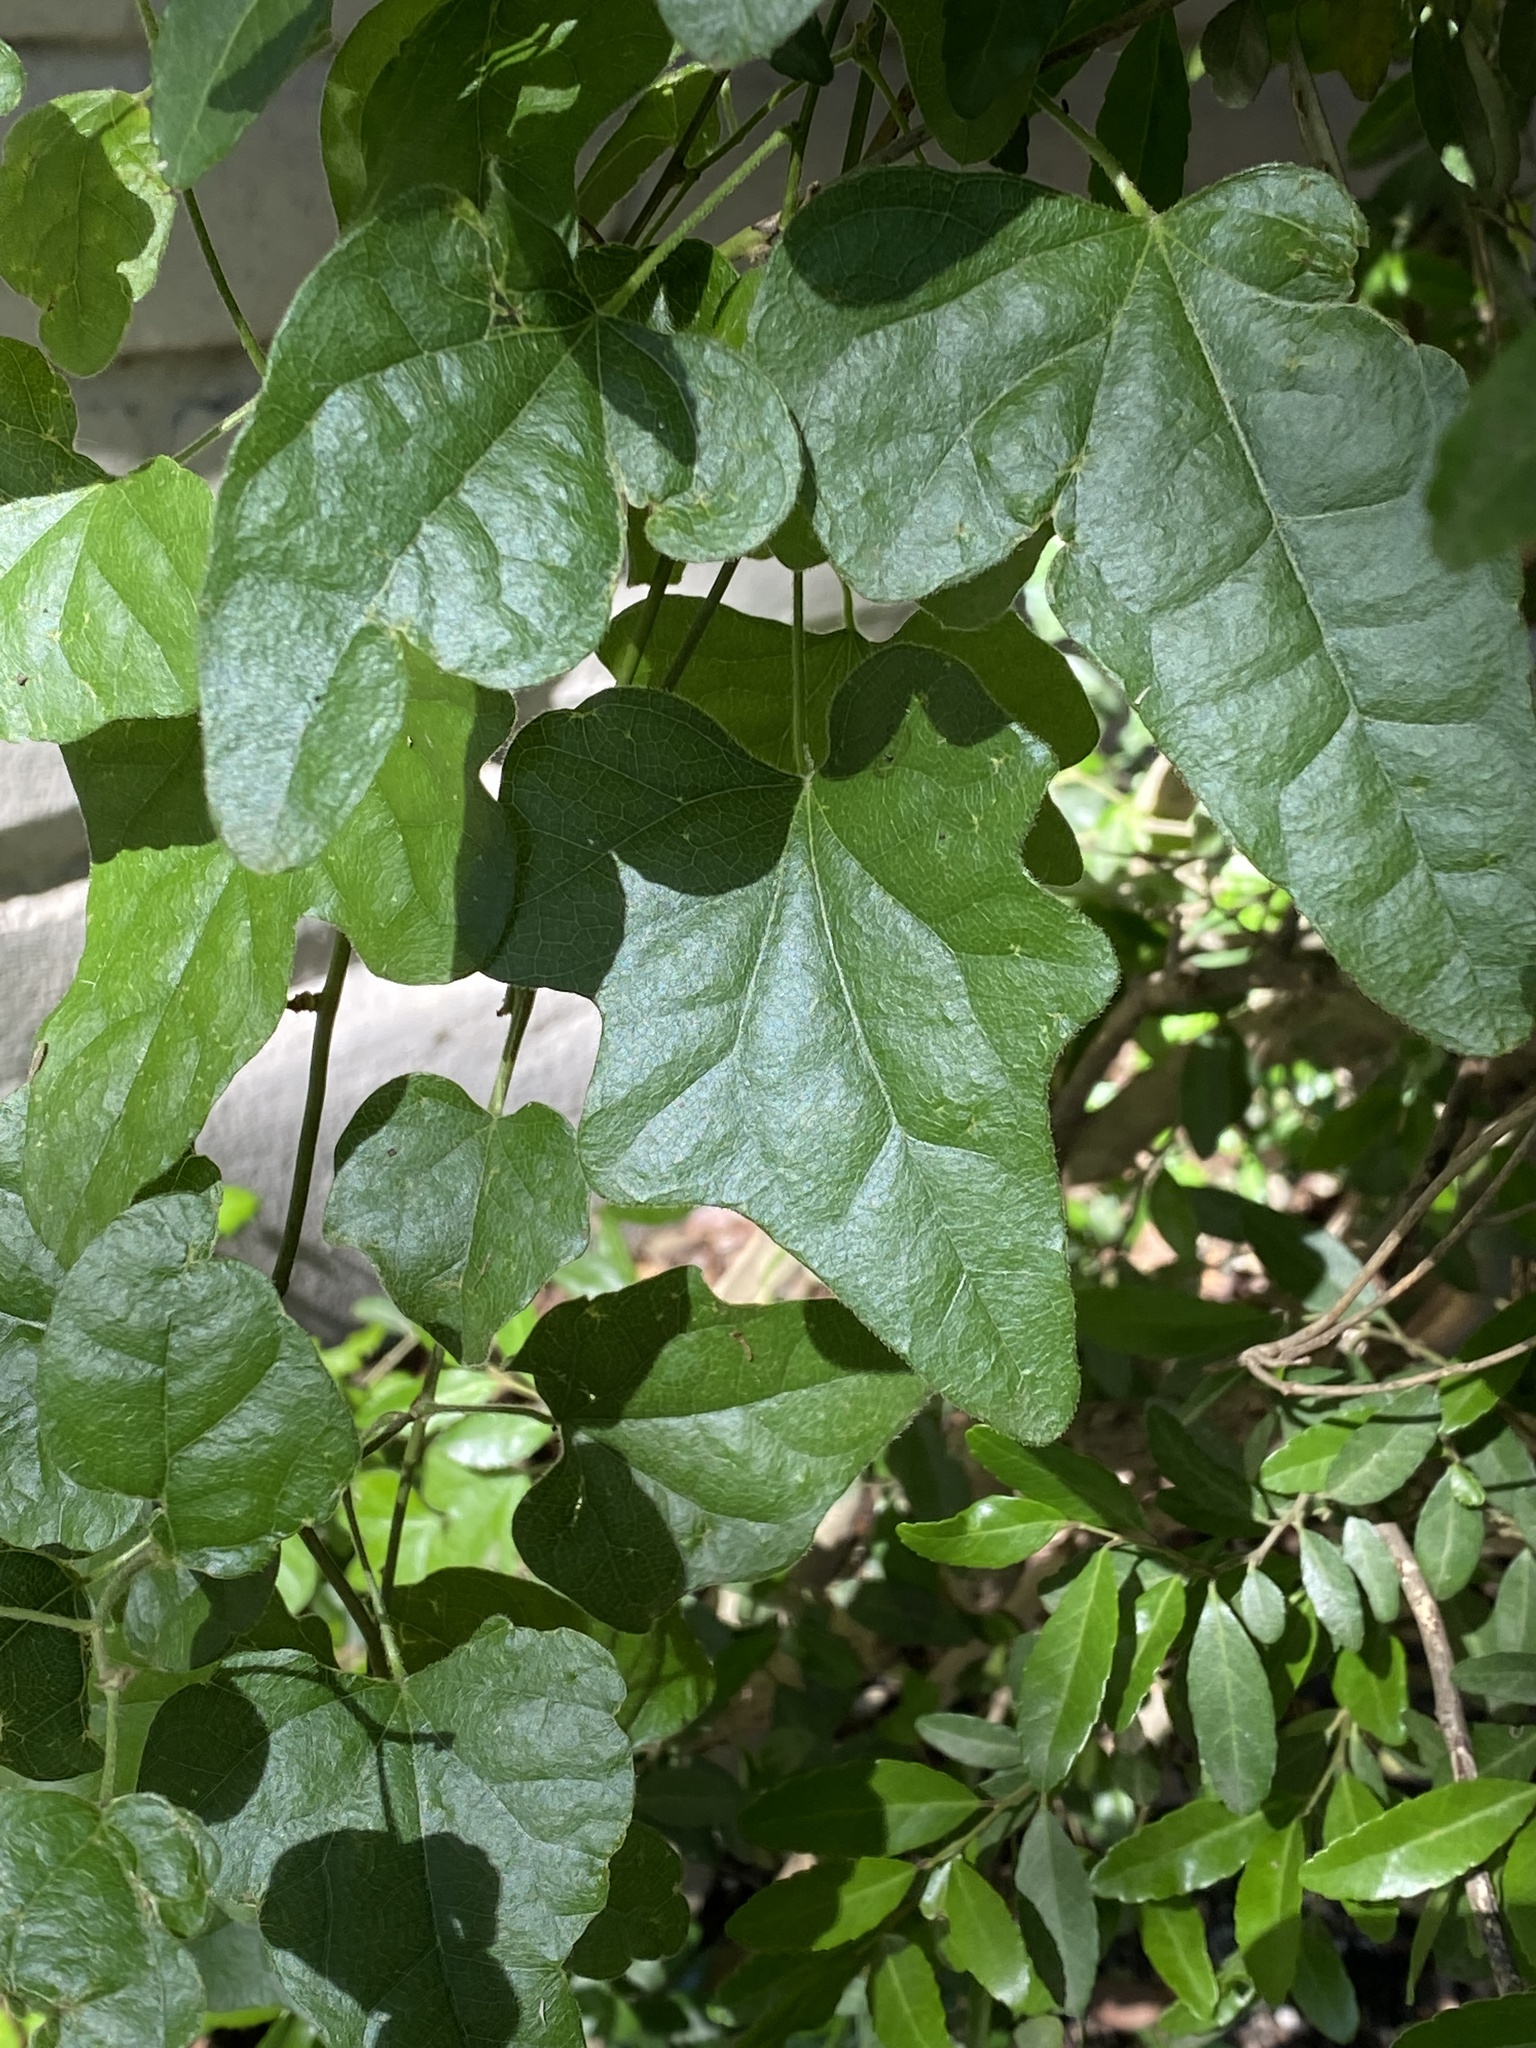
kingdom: Plantae
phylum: Tracheophyta
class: Magnoliopsida
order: Ranunculales
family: Menispermaceae
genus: Cocculus
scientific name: Cocculus carolinus
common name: Carolina moonseed
